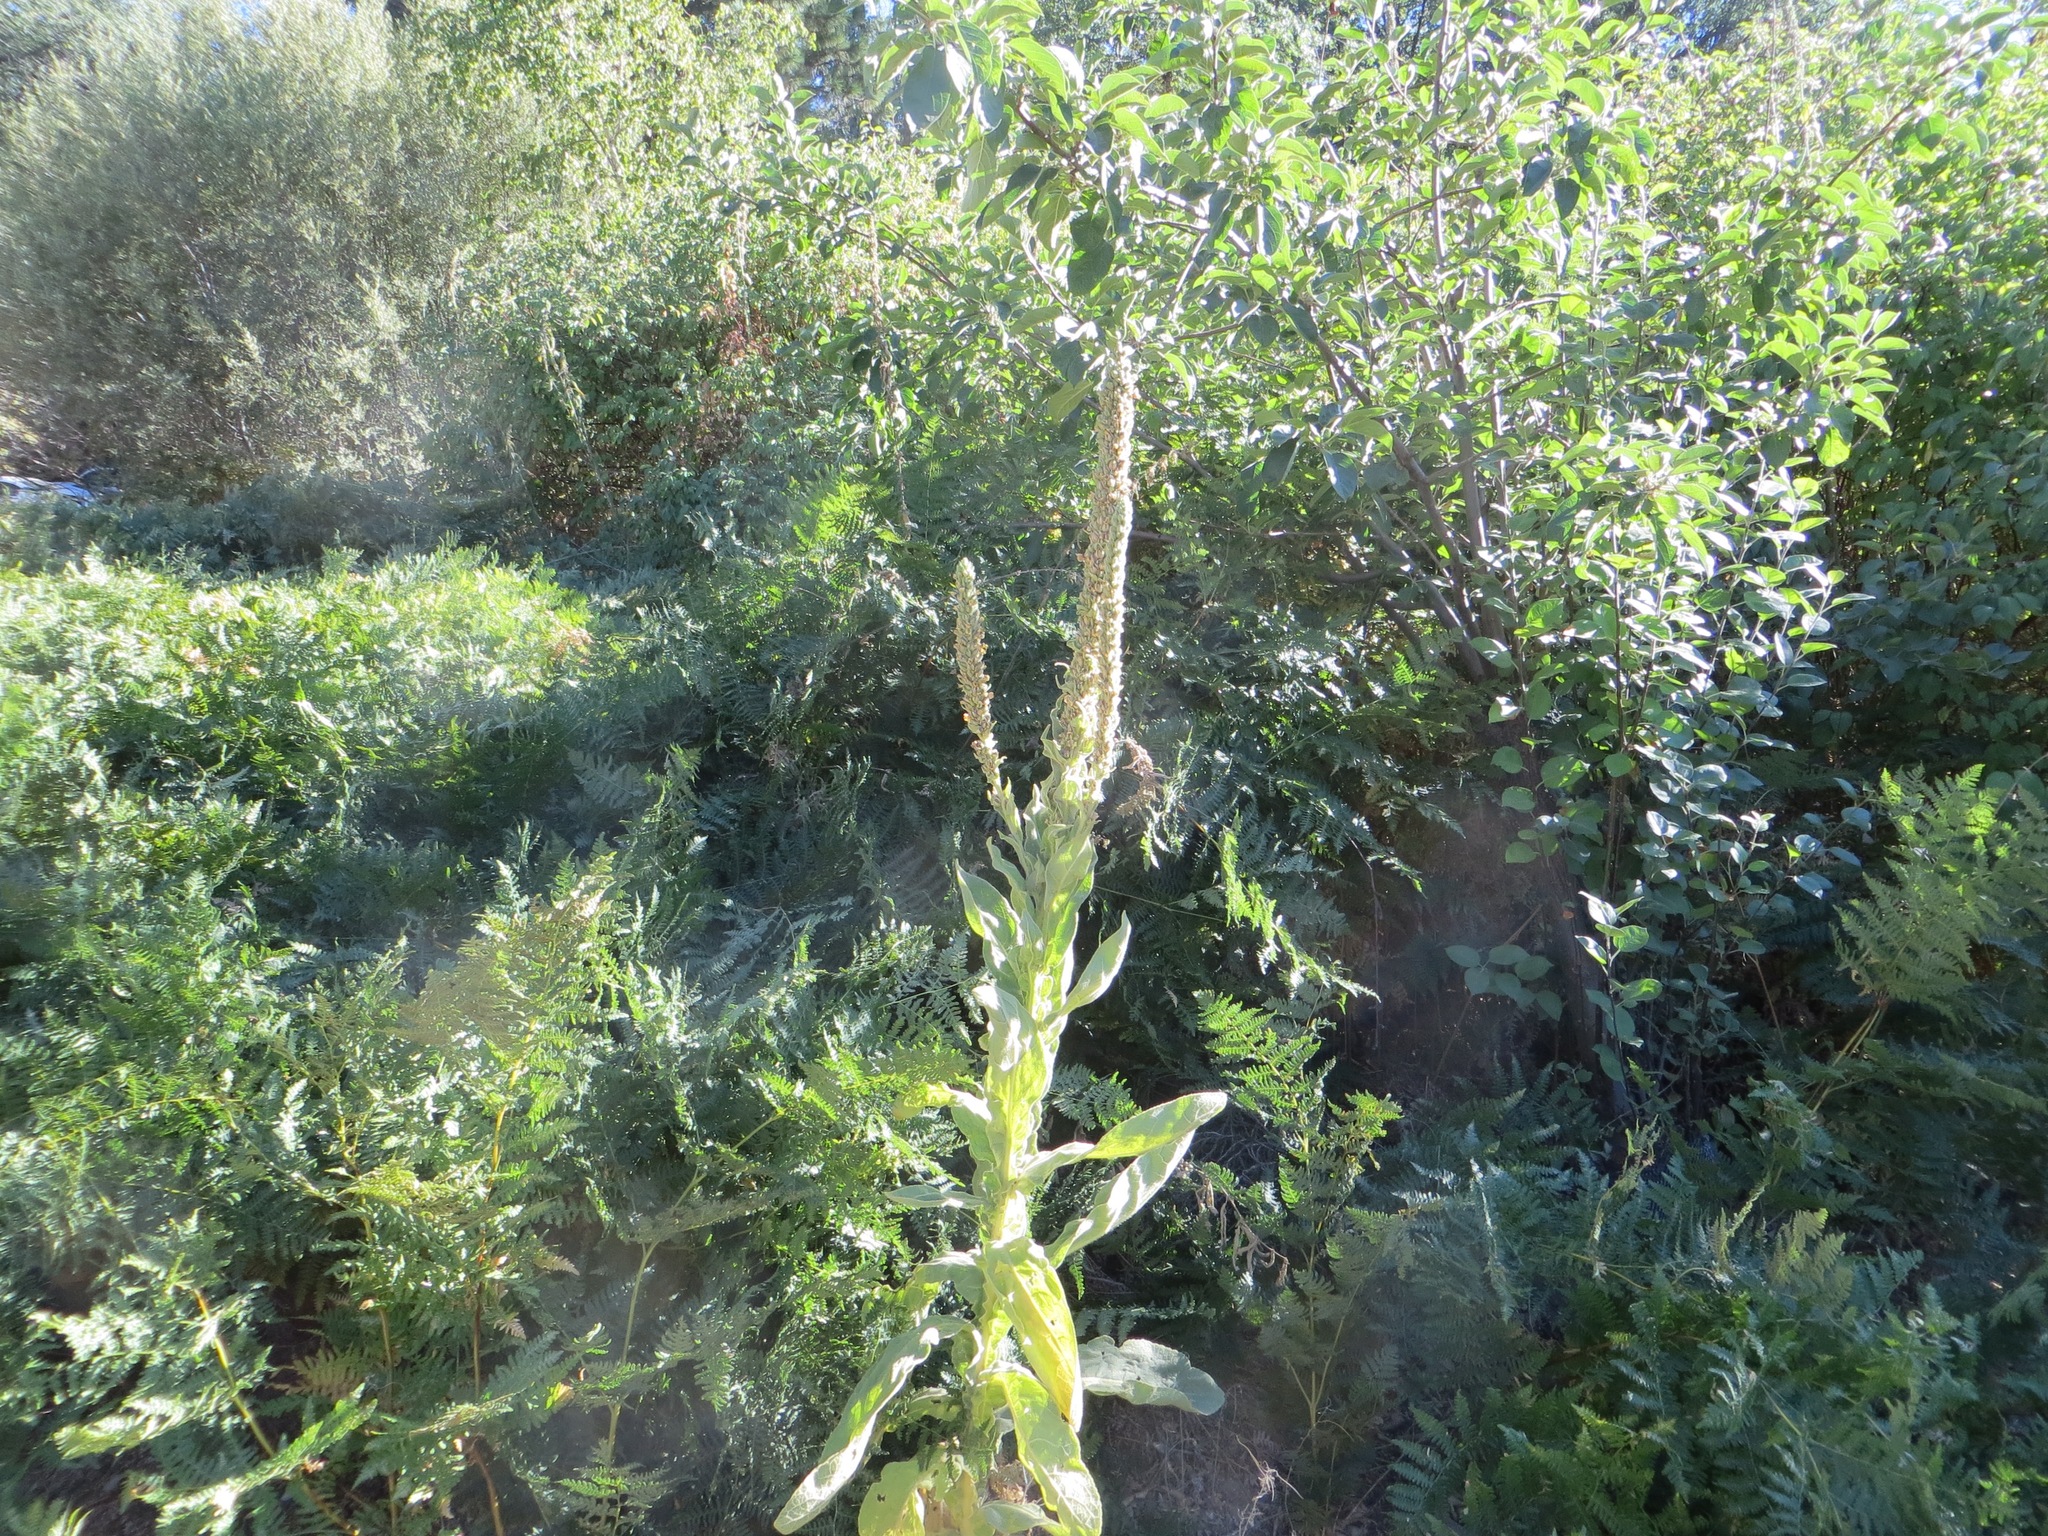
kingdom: Plantae
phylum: Tracheophyta
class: Magnoliopsida
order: Lamiales
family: Scrophulariaceae
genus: Verbascum
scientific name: Verbascum thapsus
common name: Common mullein
